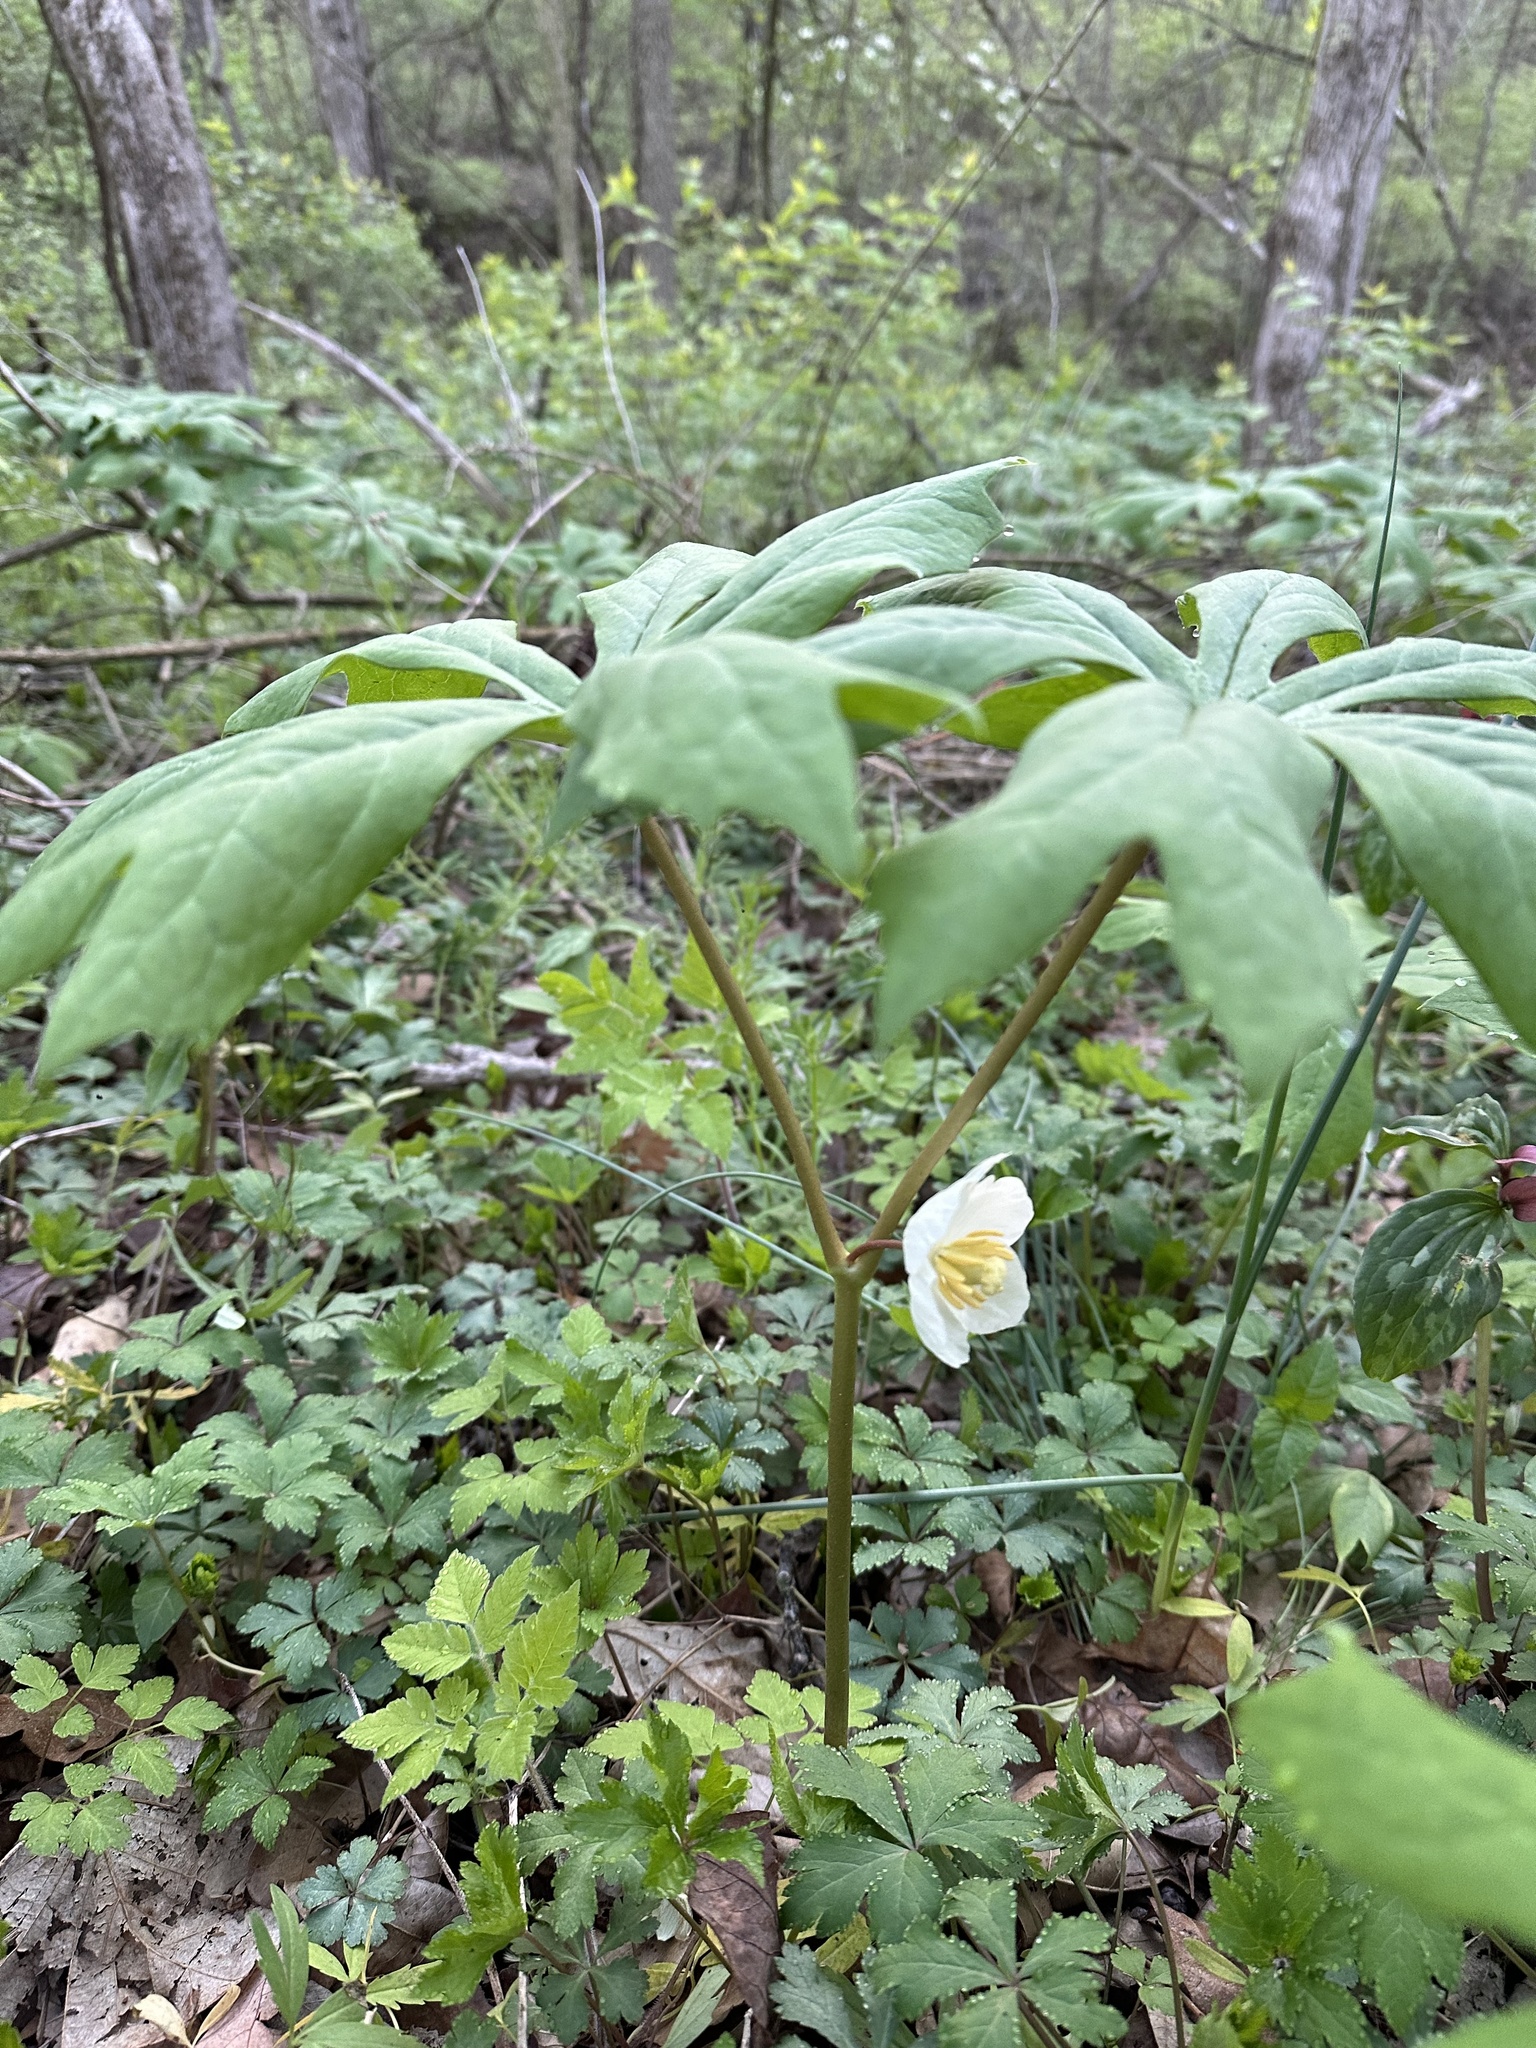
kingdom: Plantae
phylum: Tracheophyta
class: Magnoliopsida
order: Ranunculales
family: Berberidaceae
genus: Podophyllum
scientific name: Podophyllum peltatum
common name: Wild mandrake
